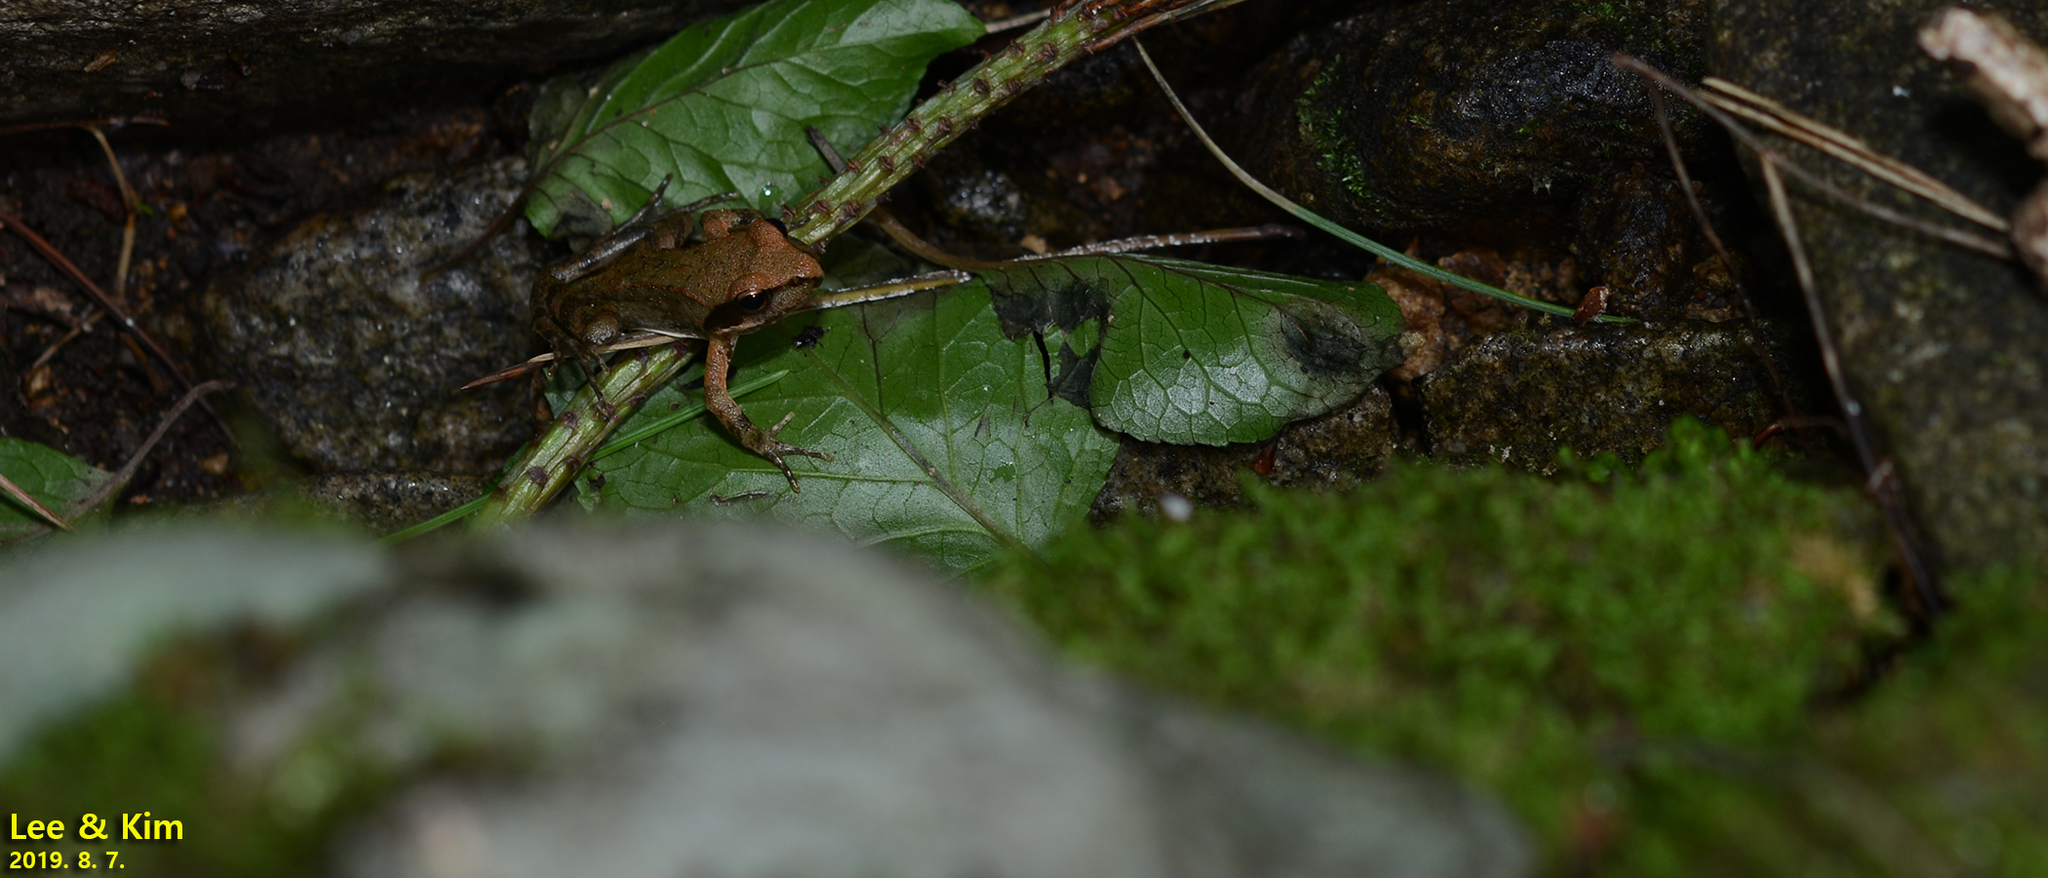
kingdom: Animalia
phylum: Chordata
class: Amphibia
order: Anura
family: Ranidae
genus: Rana
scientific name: Rana uenoi
